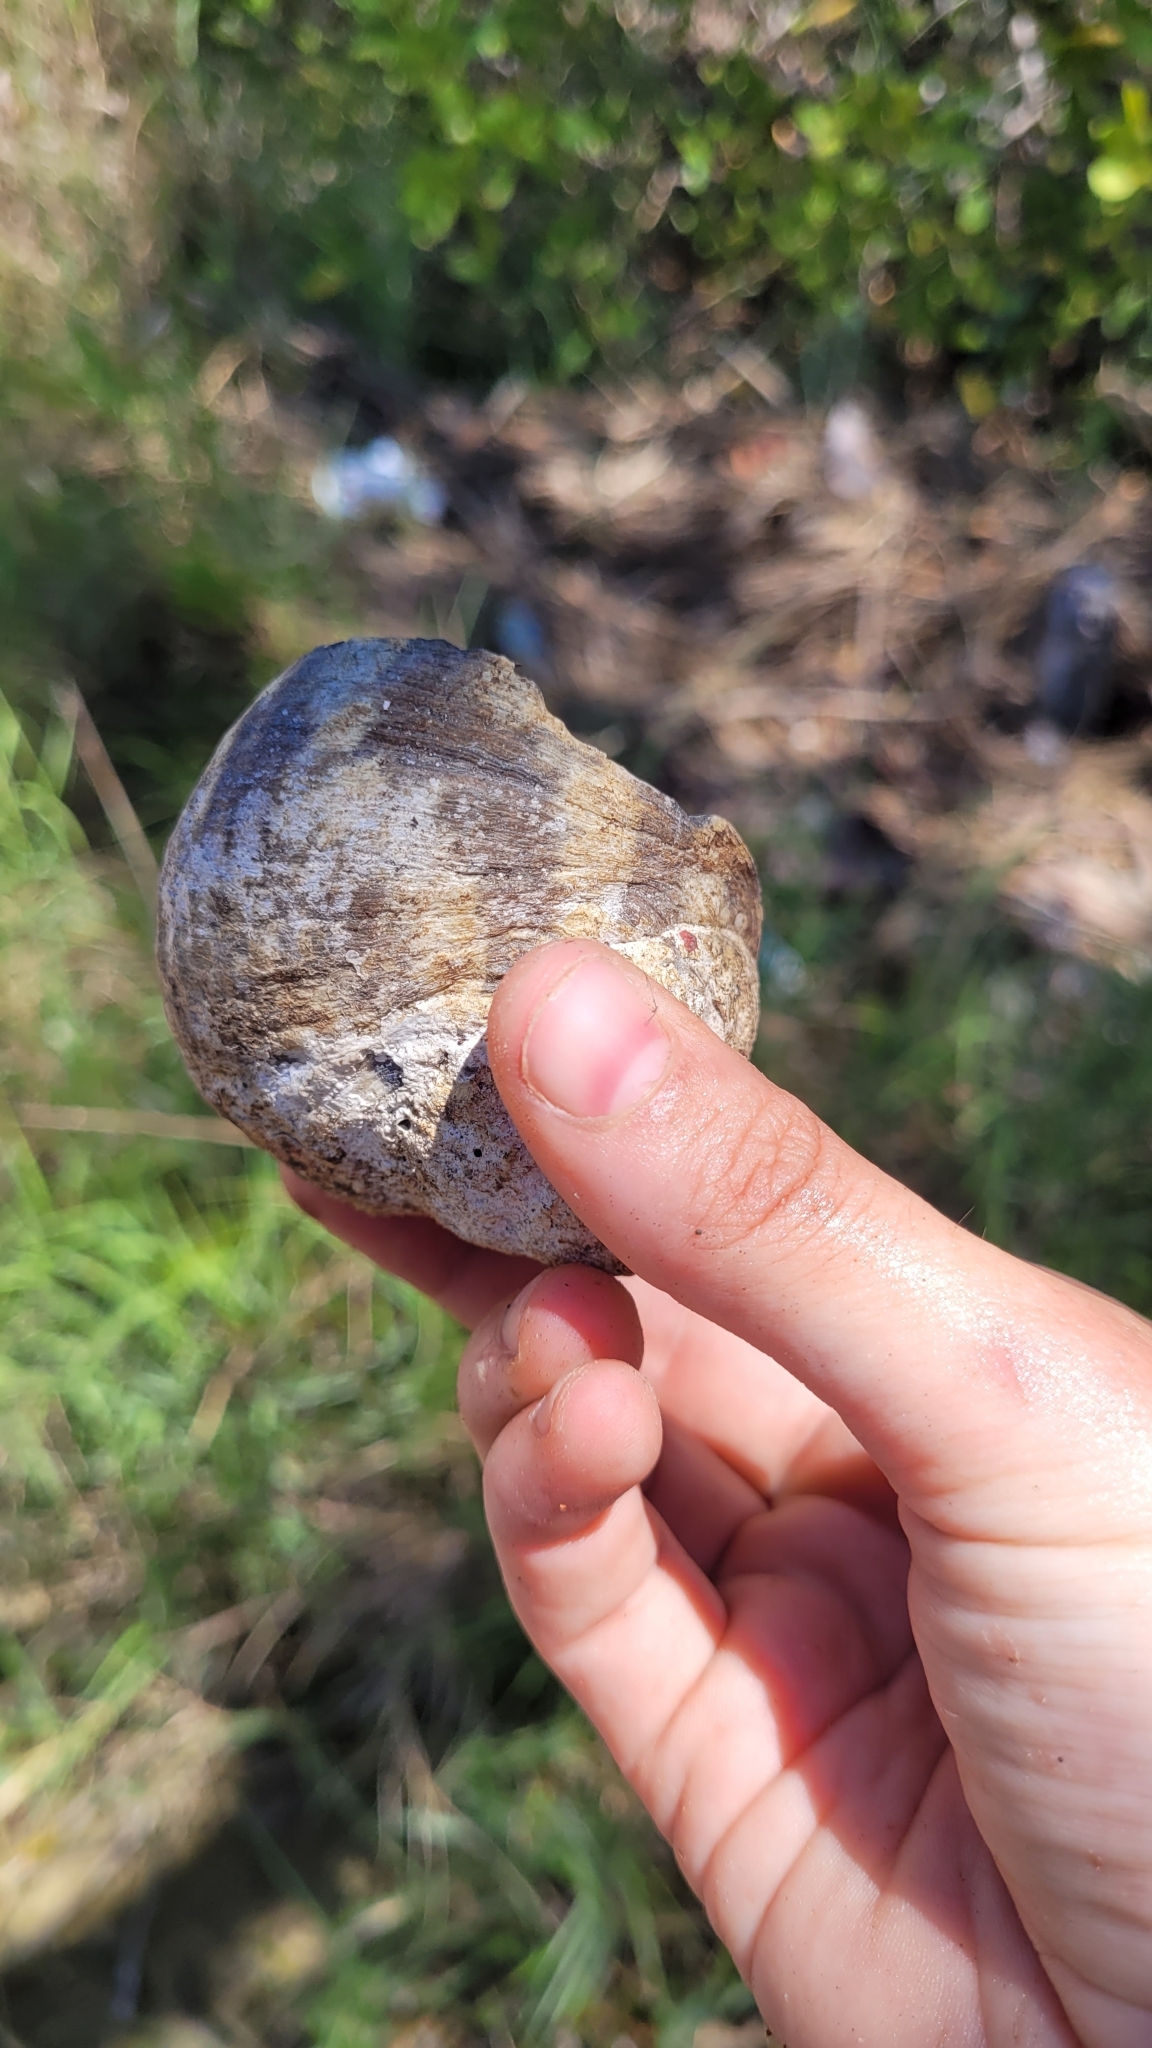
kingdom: Animalia
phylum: Arthropoda
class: Malacostraca
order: Decapoda
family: Coenobitidae
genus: Coenobita
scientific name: Coenobita clypeatus
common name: Caribbean hermit crab
